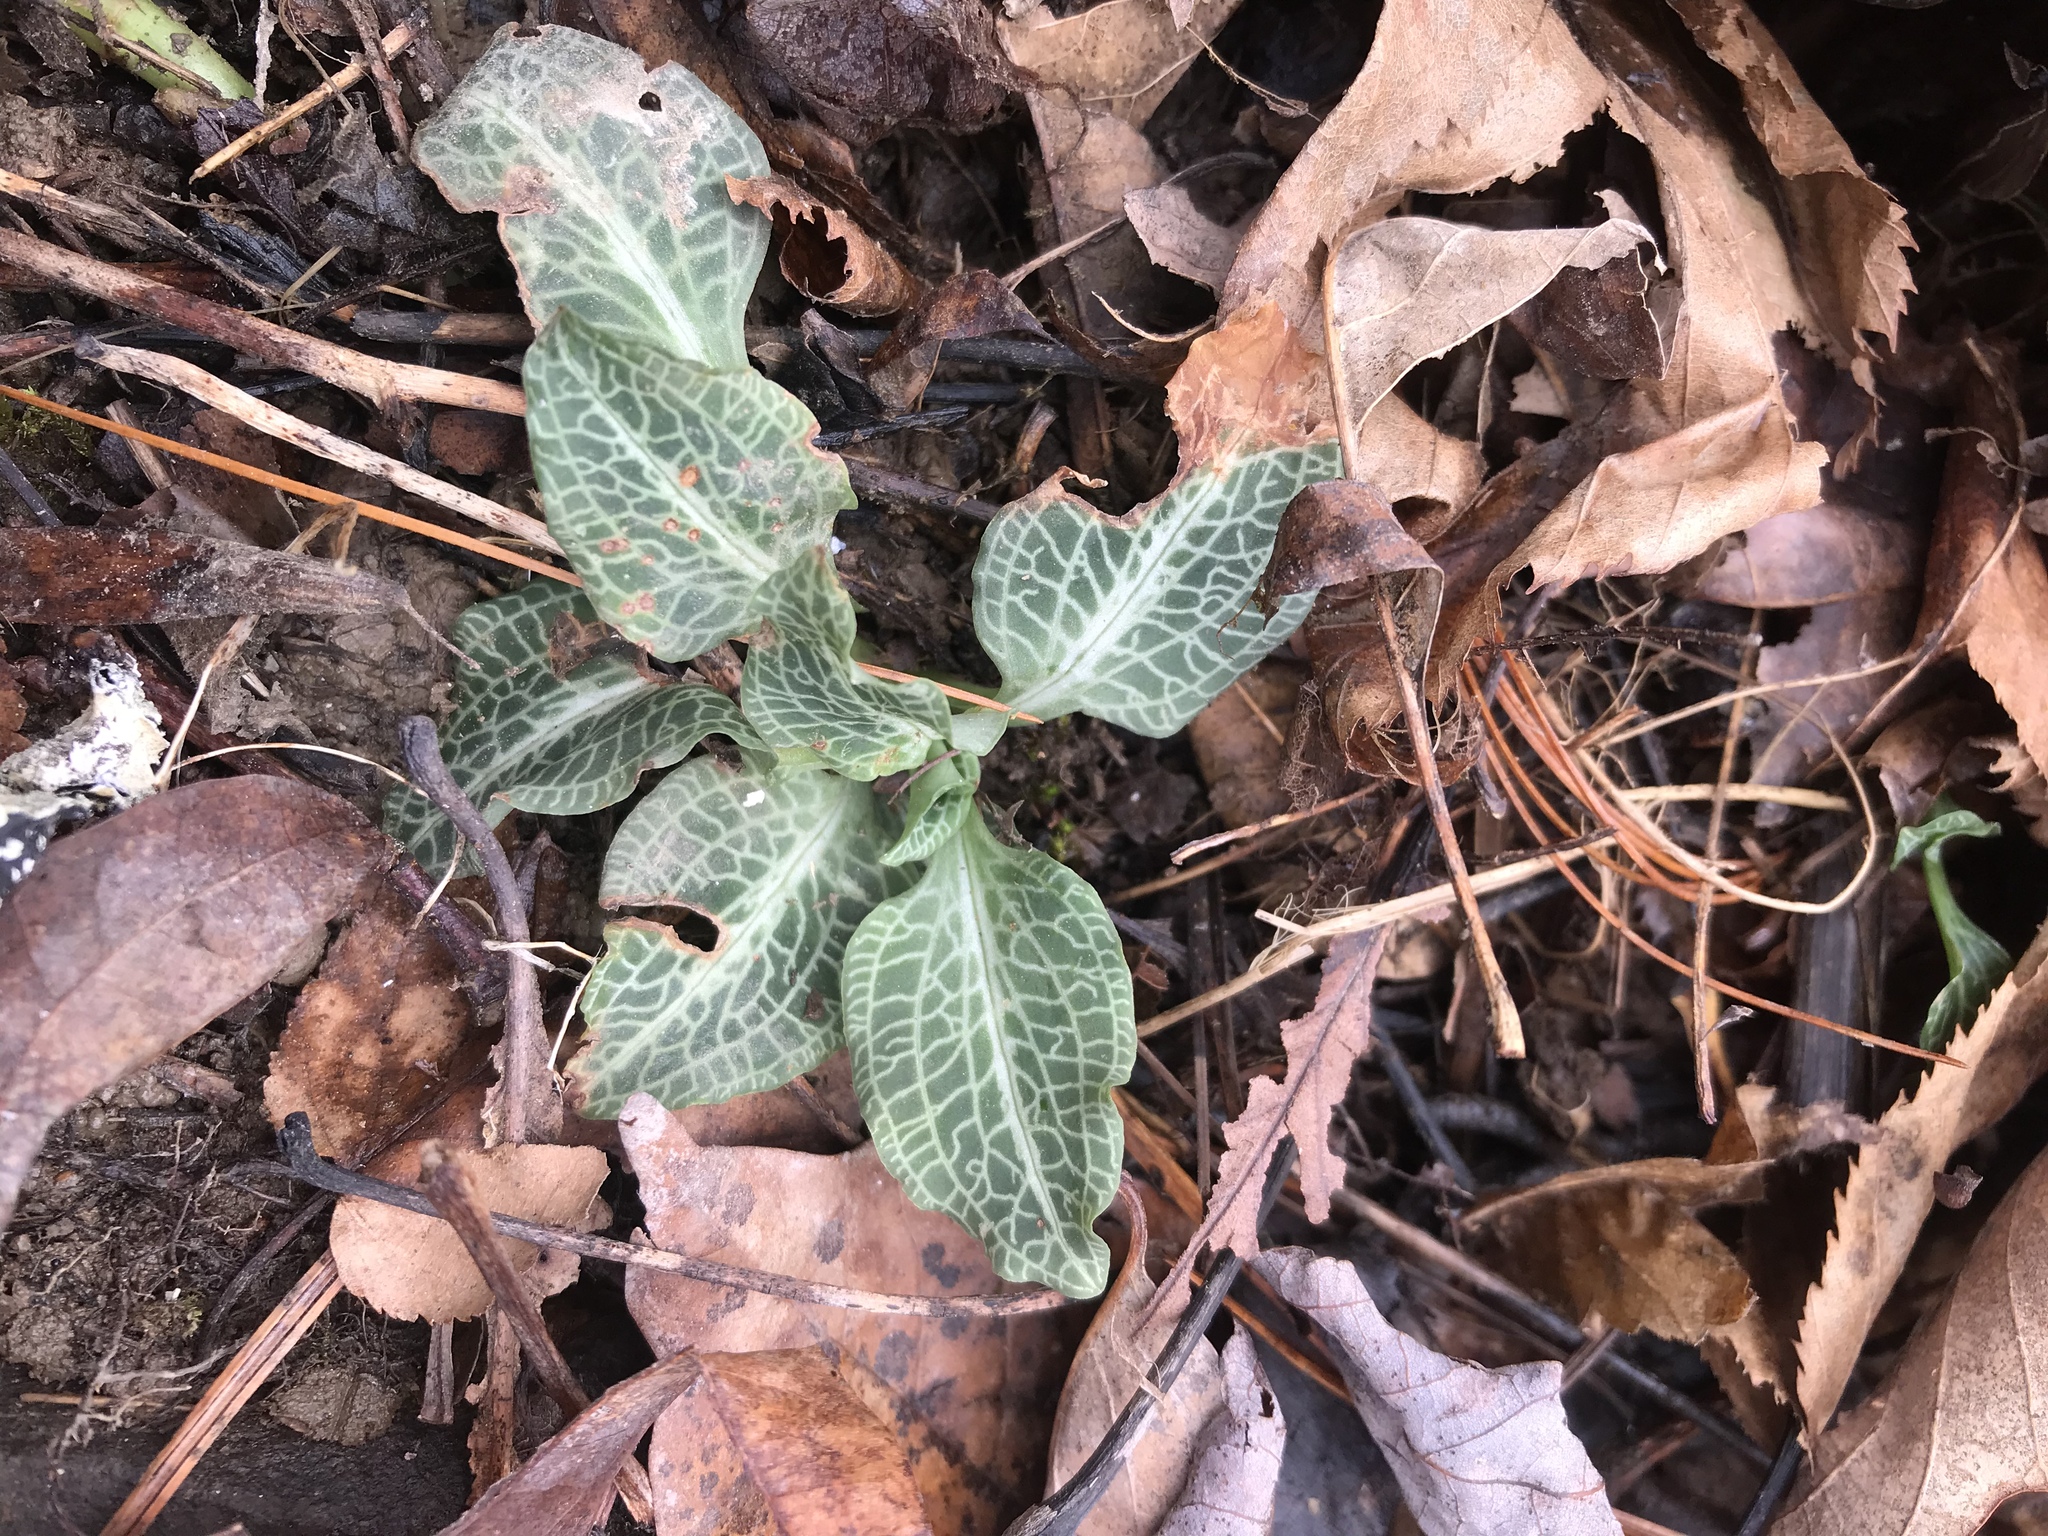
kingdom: Plantae
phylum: Tracheophyta
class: Liliopsida
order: Asparagales
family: Orchidaceae
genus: Goodyera
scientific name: Goodyera pubescens
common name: Downy rattlesnake-plantain
